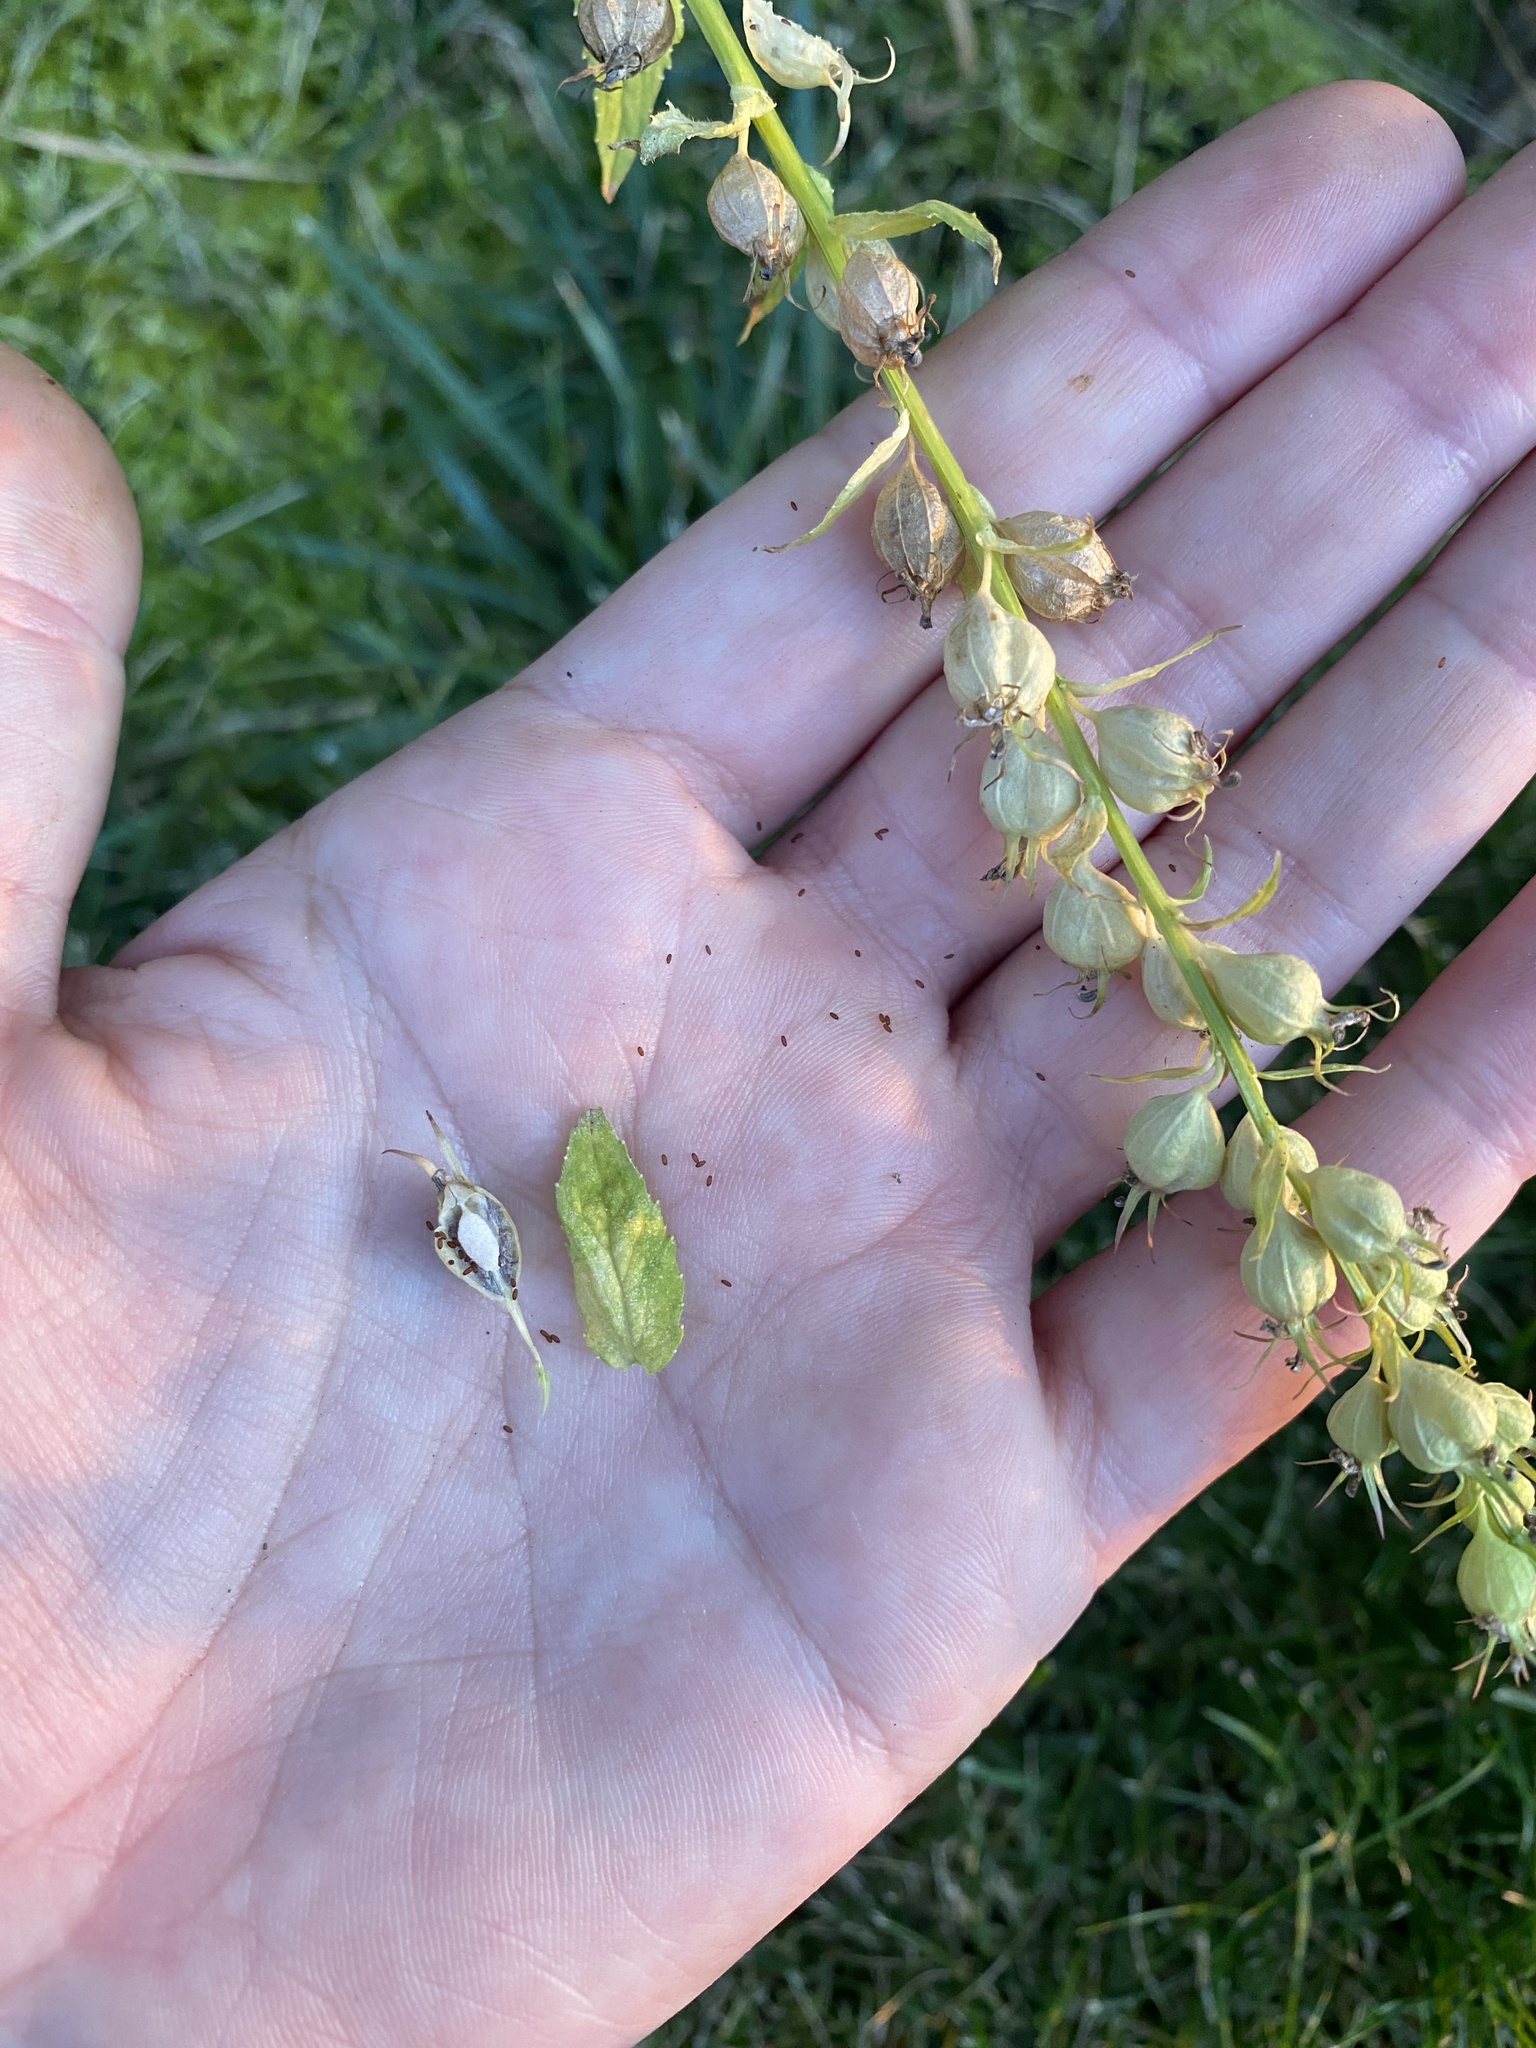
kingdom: Plantae
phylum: Tracheophyta
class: Magnoliopsida
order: Asterales
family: Campanulaceae
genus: Lobelia
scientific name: Lobelia inflata
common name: Indian tobacco
